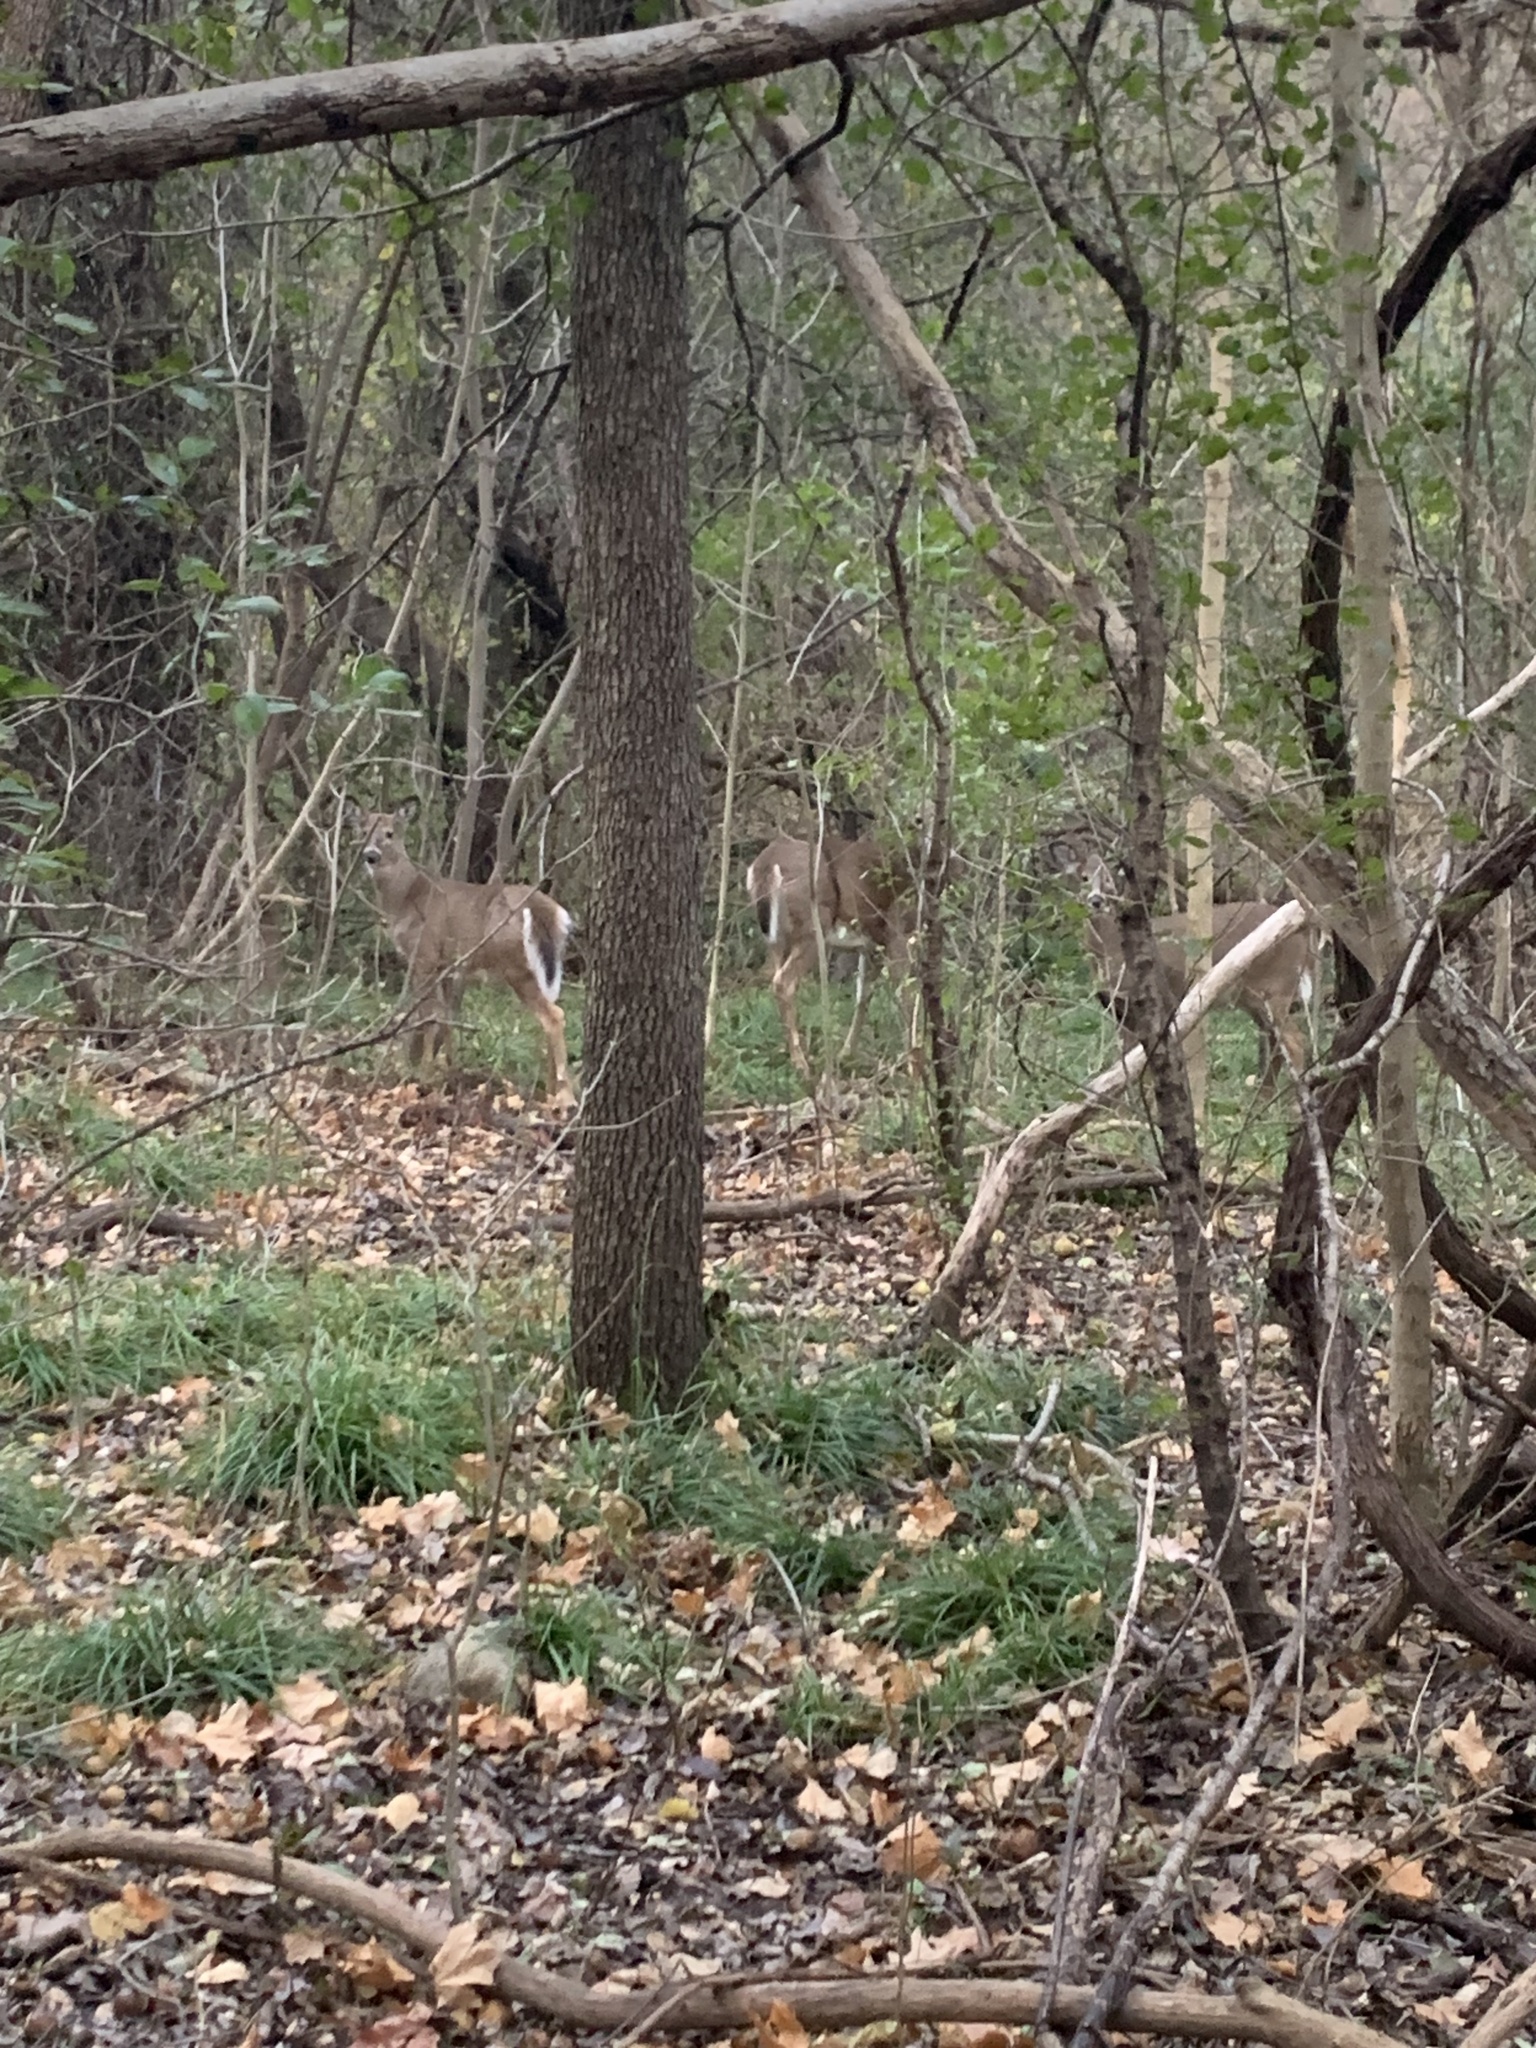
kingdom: Animalia
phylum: Chordata
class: Mammalia
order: Artiodactyla
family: Cervidae
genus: Odocoileus
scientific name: Odocoileus virginianus
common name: White-tailed deer
